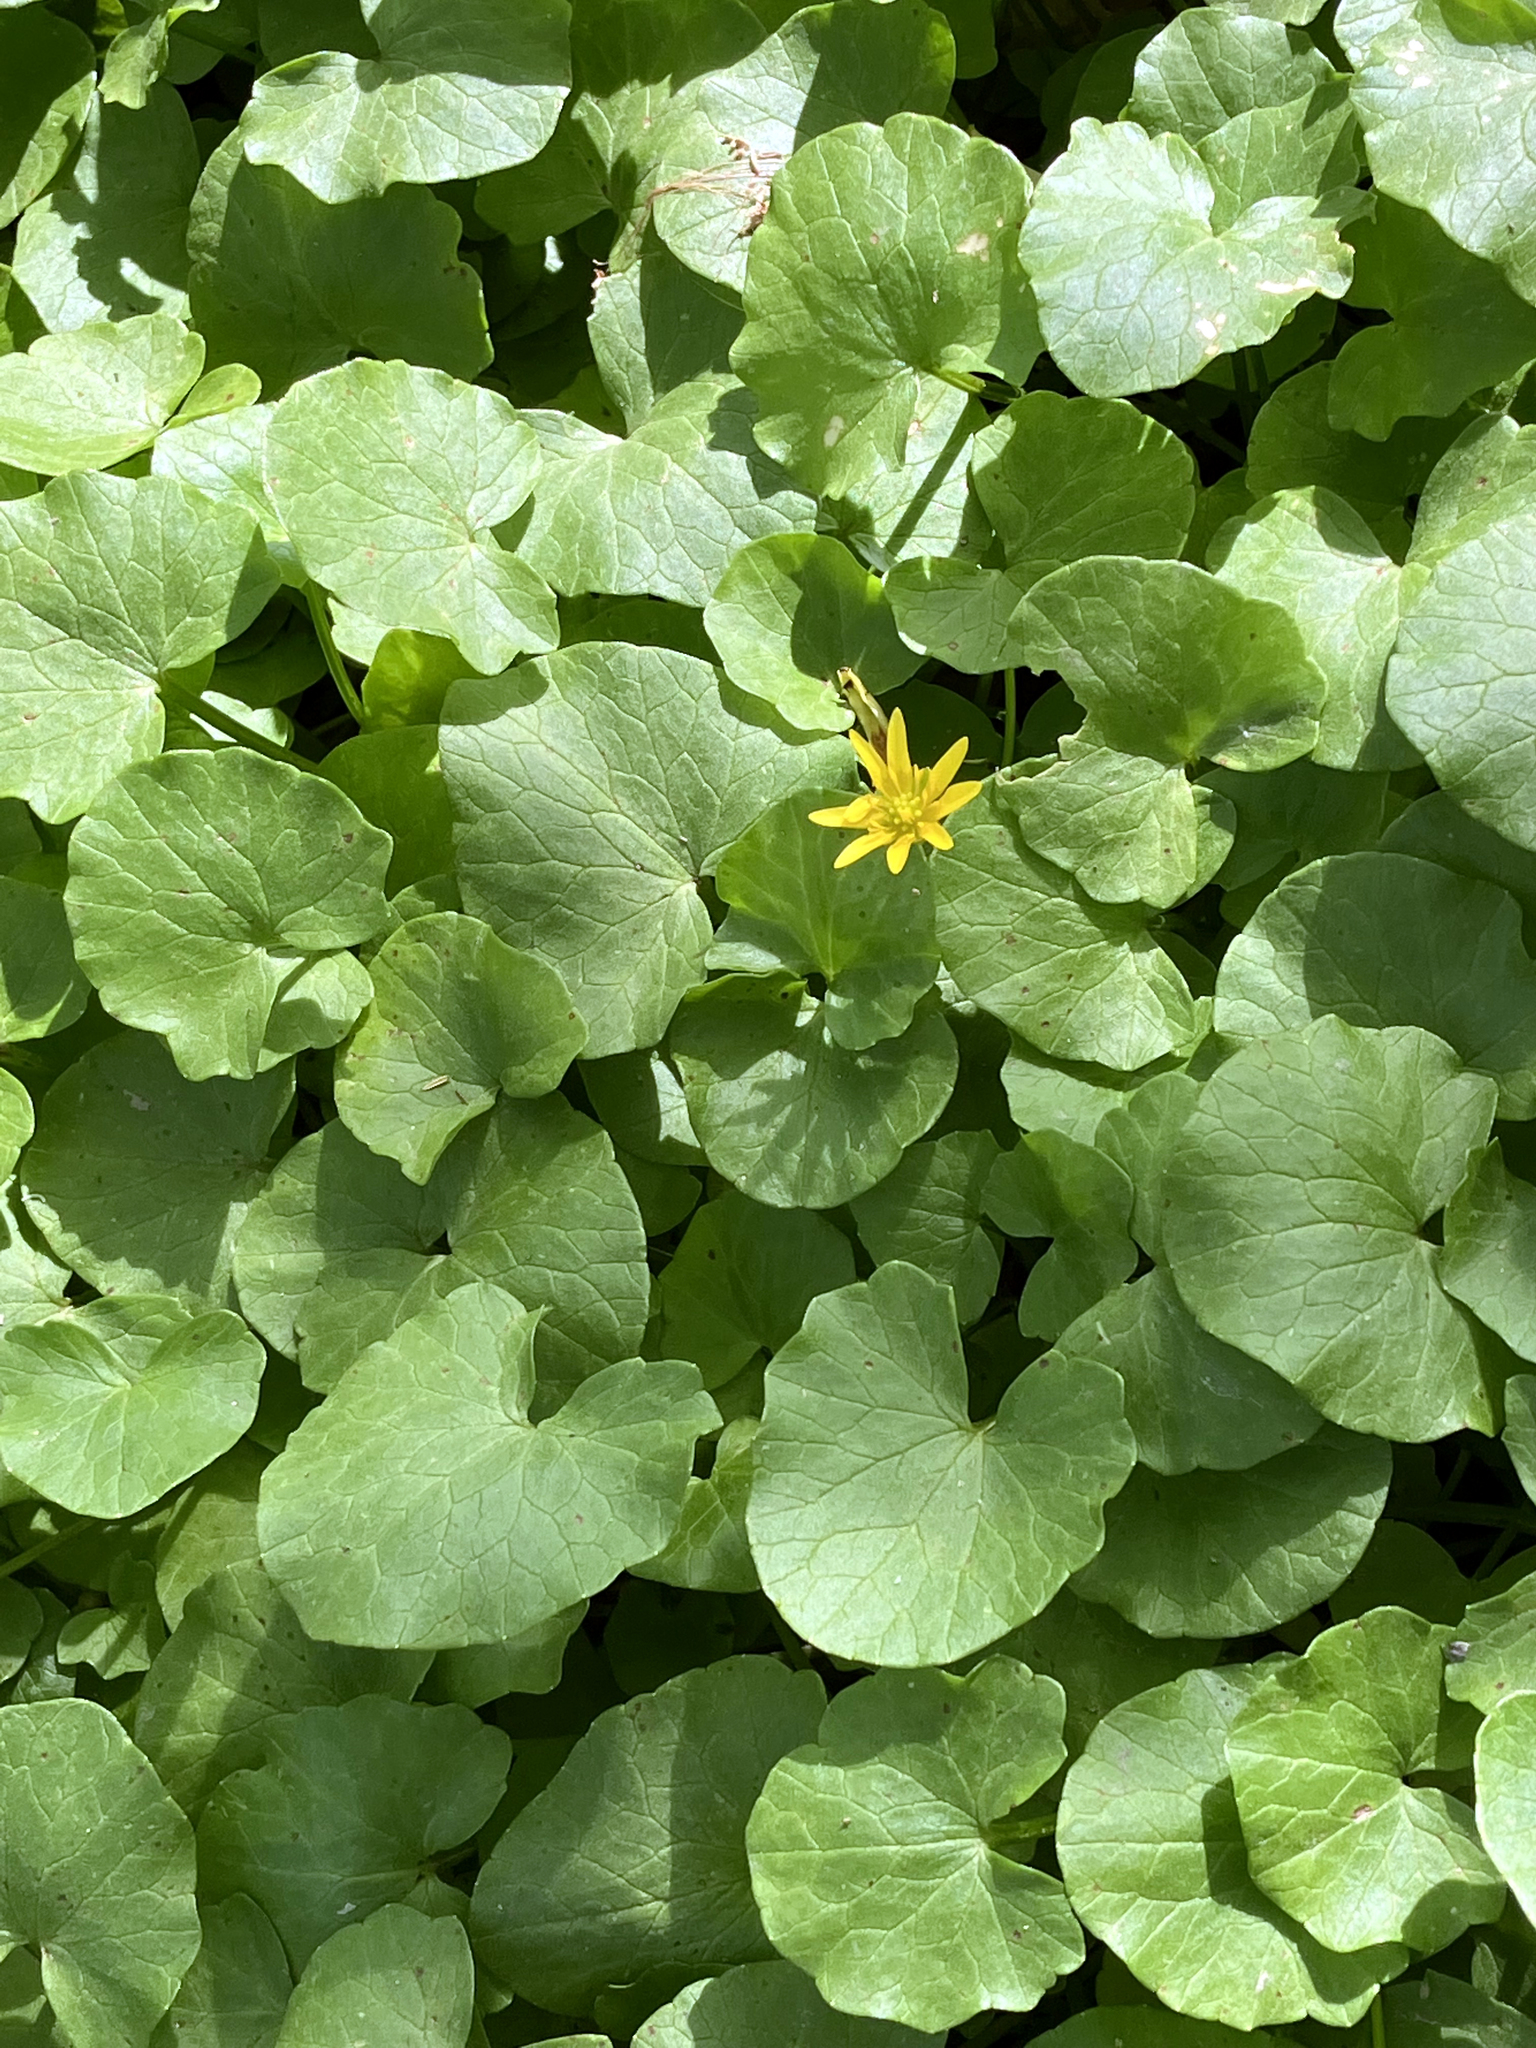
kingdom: Plantae
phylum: Tracheophyta
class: Magnoliopsida
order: Ranunculales
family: Ranunculaceae
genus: Ficaria
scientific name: Ficaria verna
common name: Lesser celandine
